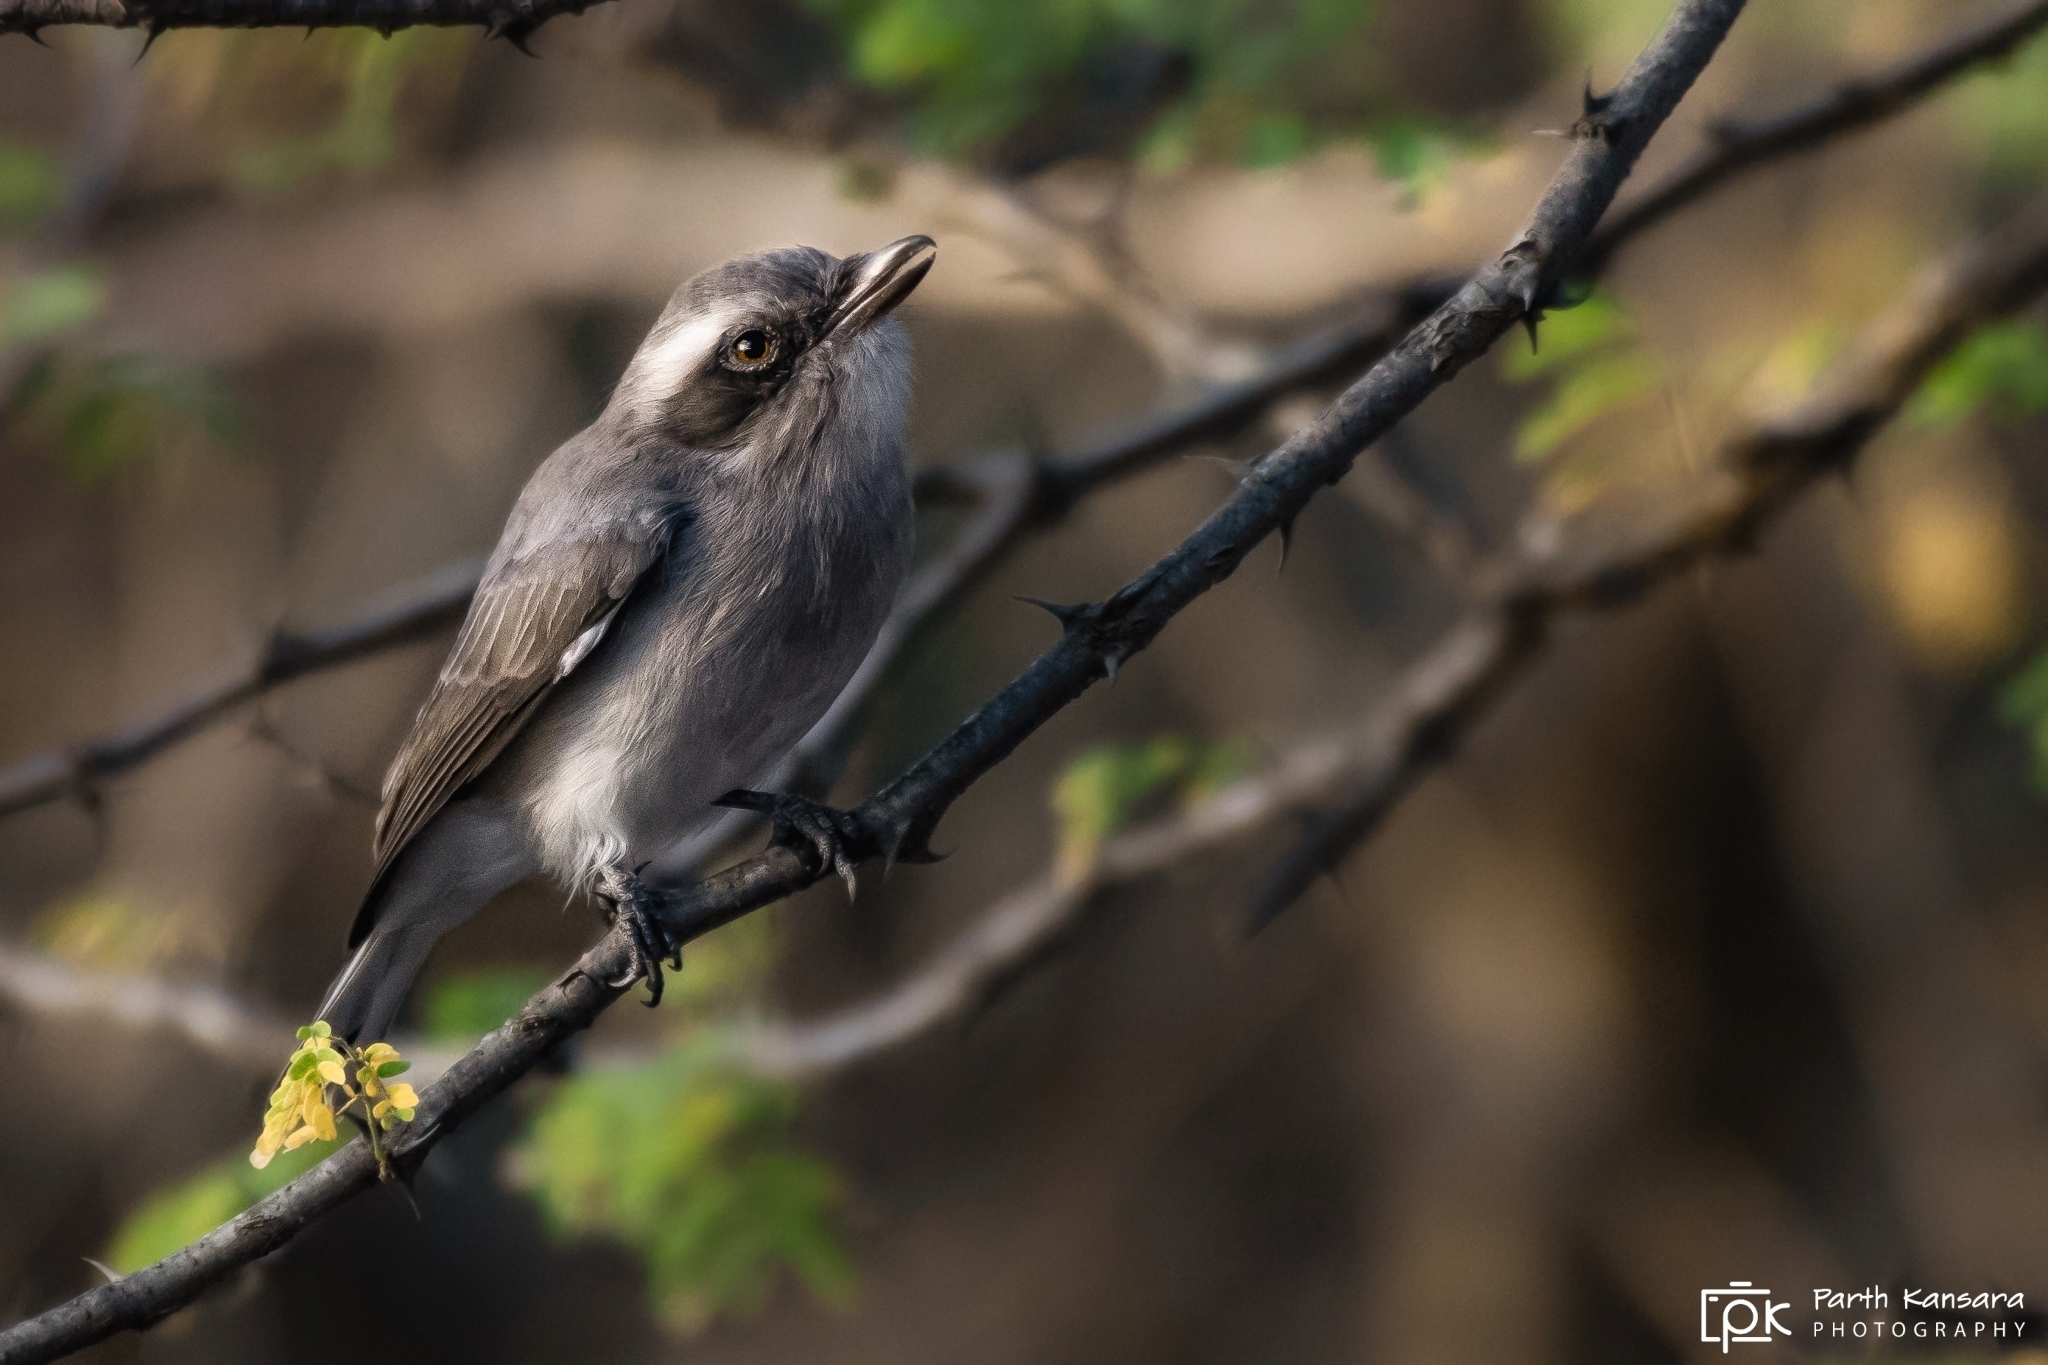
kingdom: Animalia
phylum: Chordata
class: Aves
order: Passeriformes
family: Tephrodornithidae
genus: Tephrodornis
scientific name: Tephrodornis pondicerianus
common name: Common woodshrike
